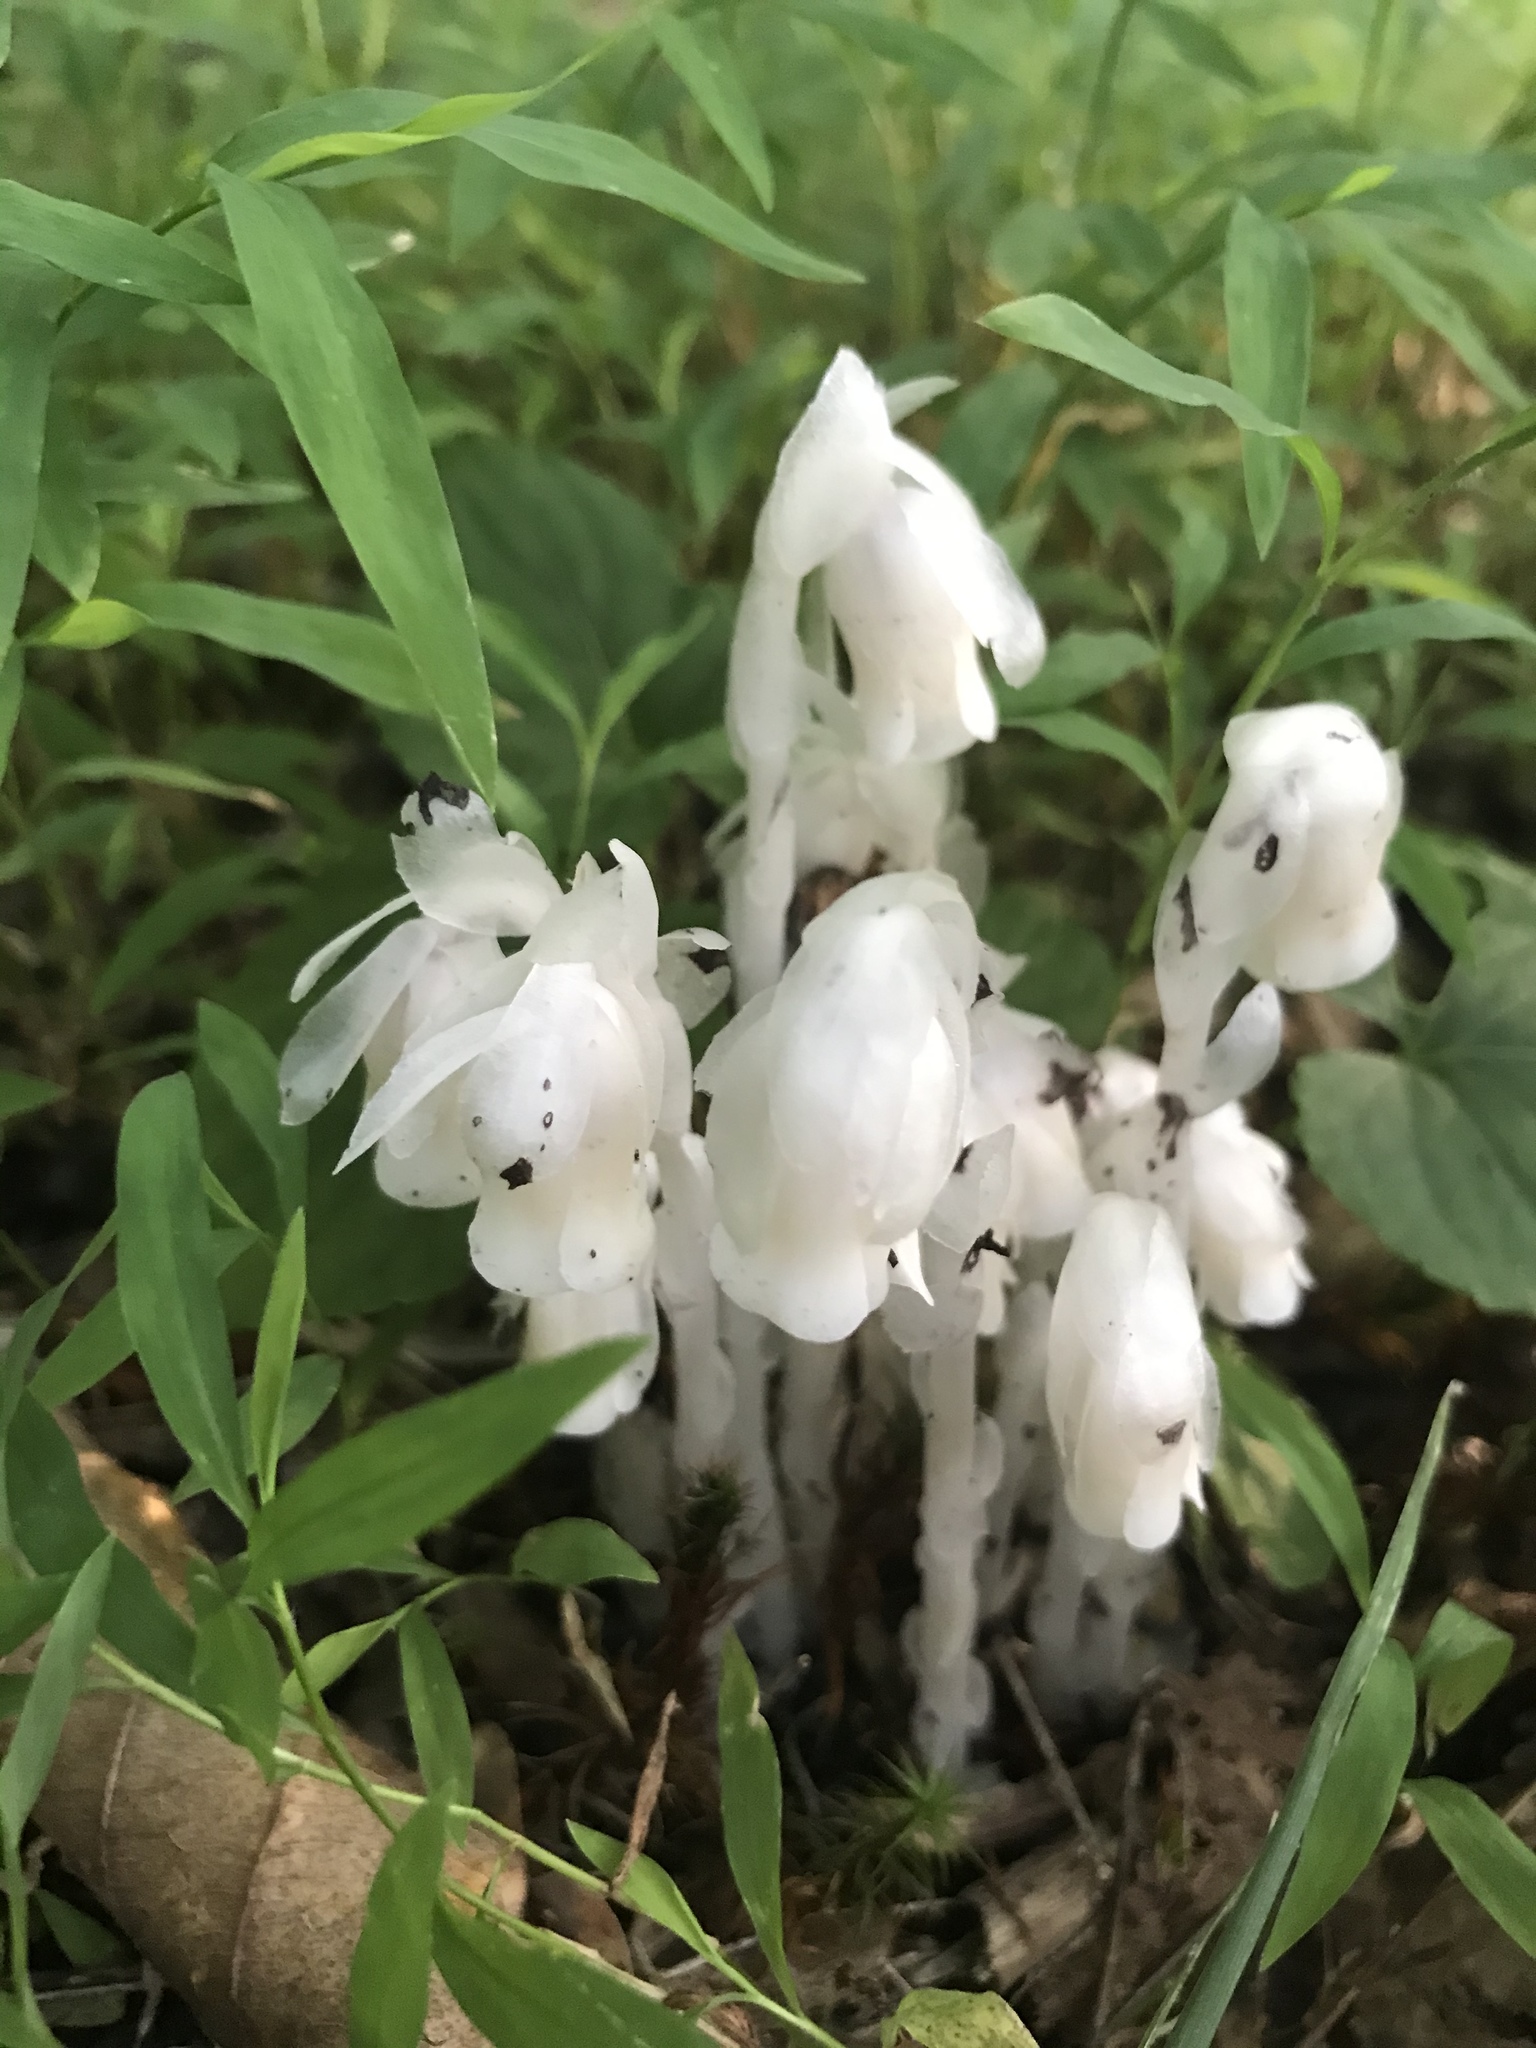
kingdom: Plantae
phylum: Tracheophyta
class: Magnoliopsida
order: Ericales
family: Ericaceae
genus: Monotropa
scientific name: Monotropa uniflora
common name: Convulsion root
